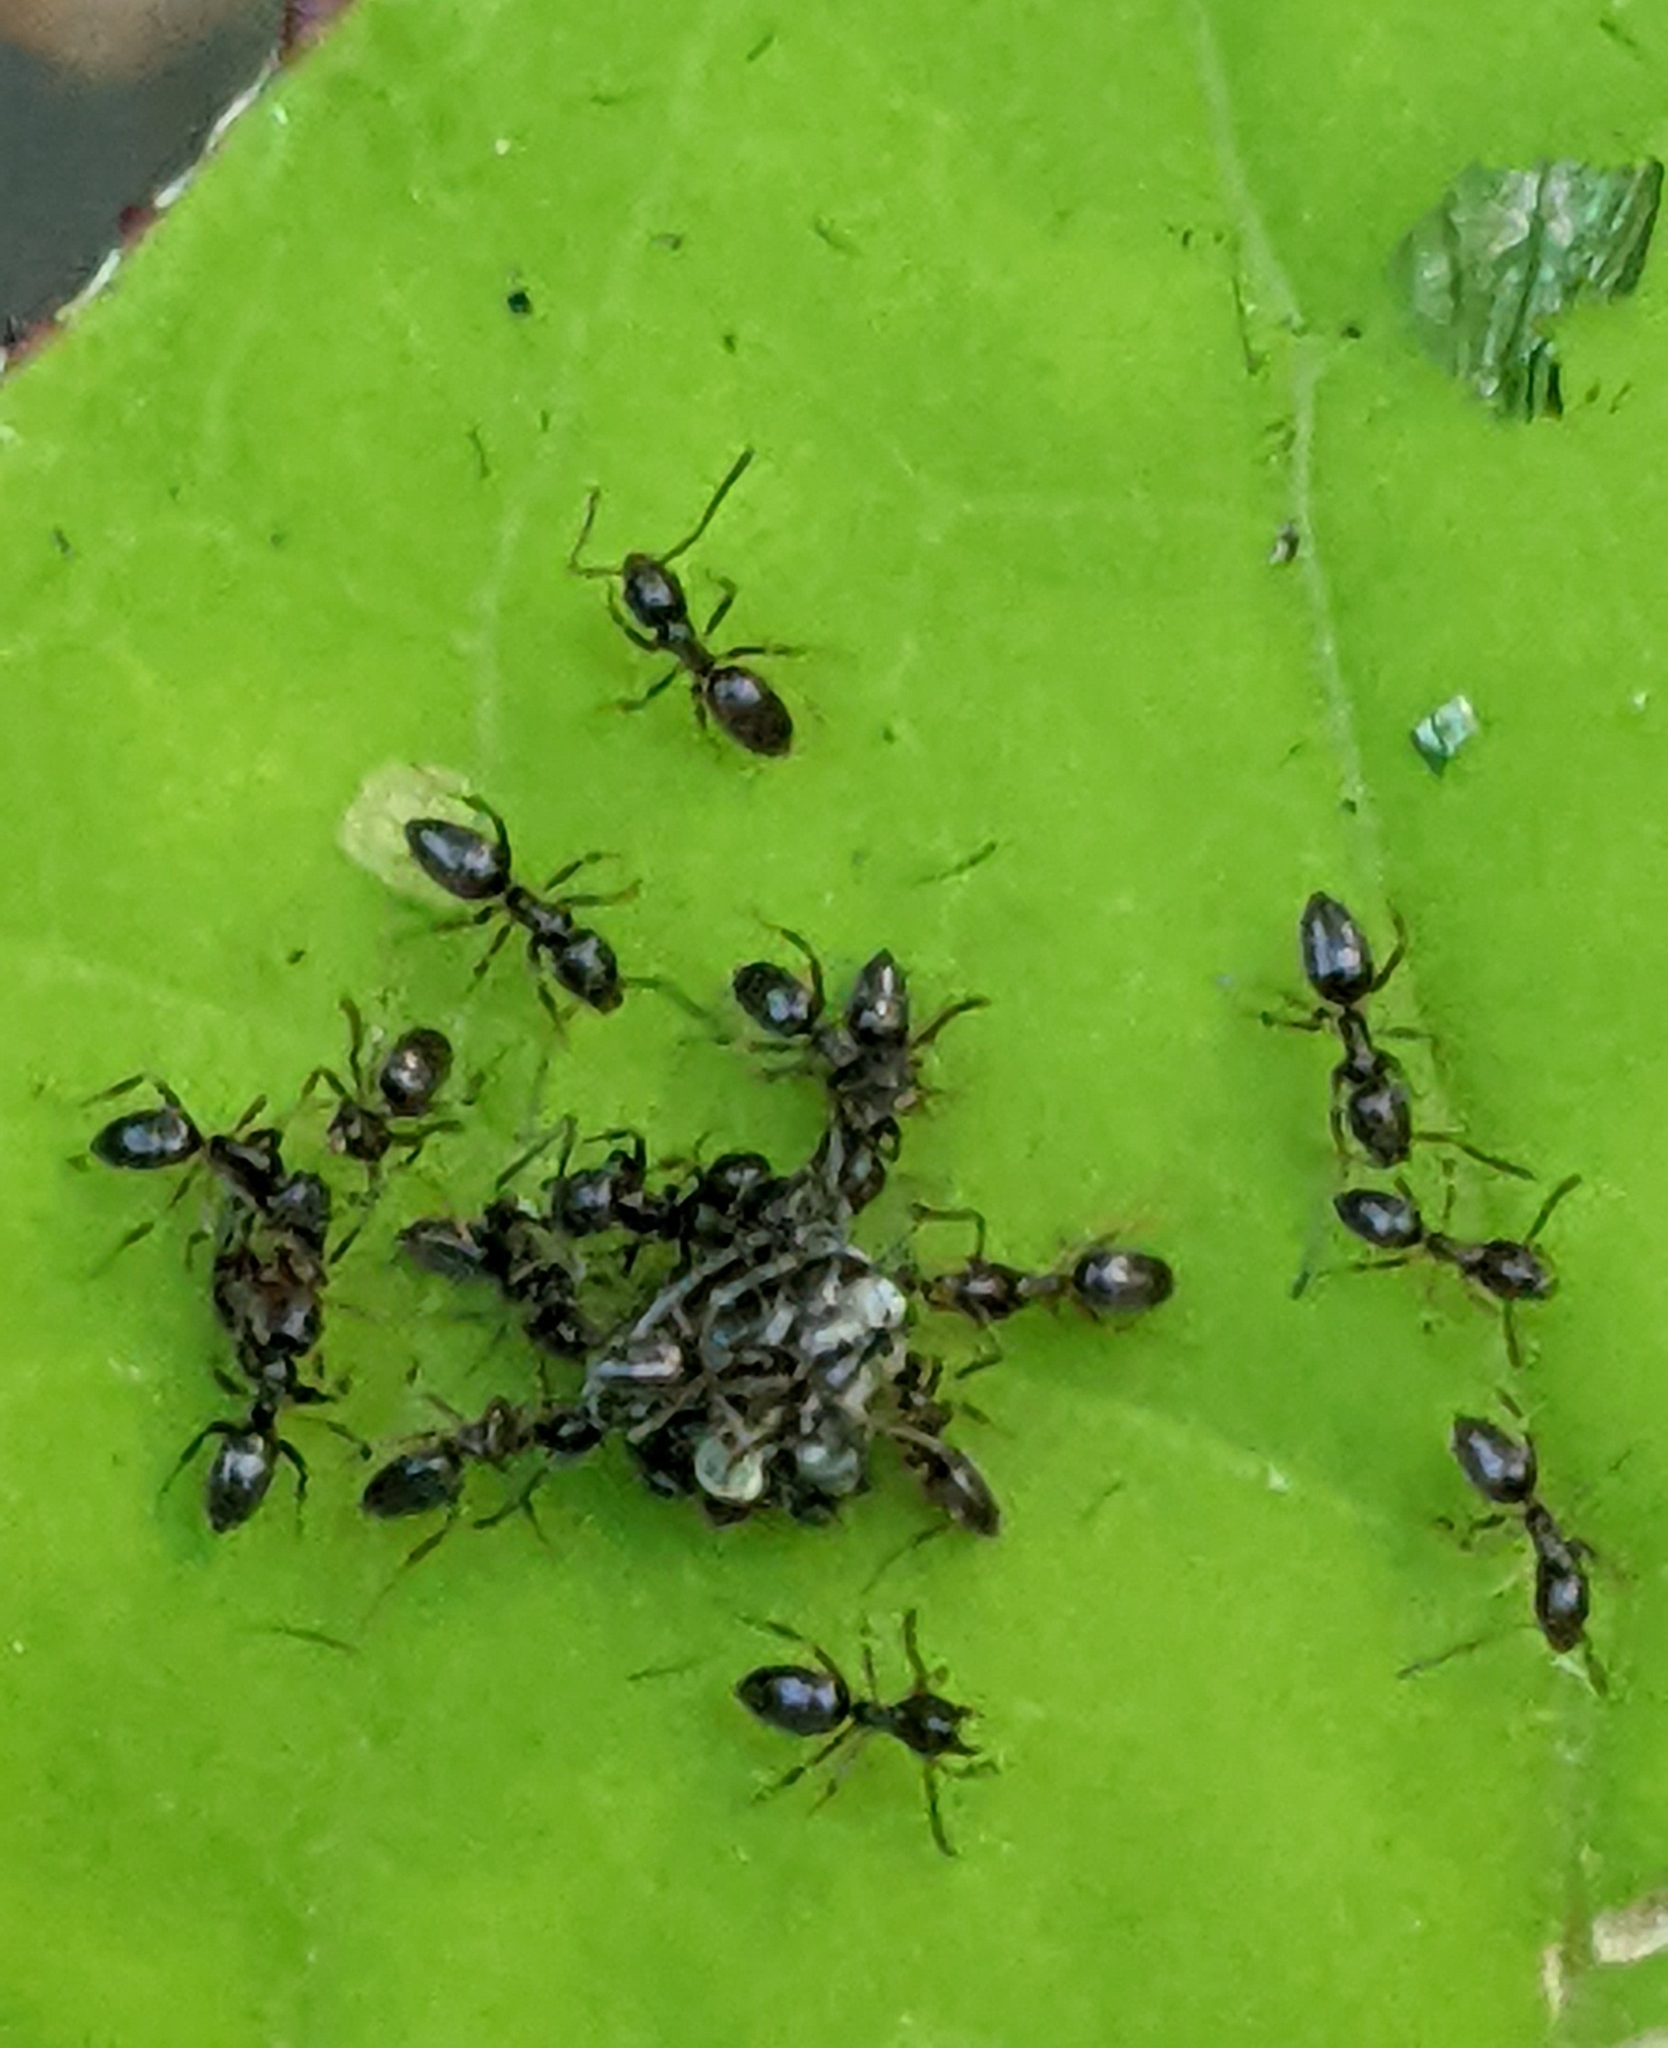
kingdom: Animalia
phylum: Arthropoda
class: Insecta
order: Hymenoptera
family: Formicidae
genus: Tapinoma
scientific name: Tapinoma sessile
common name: Odorous house ant
